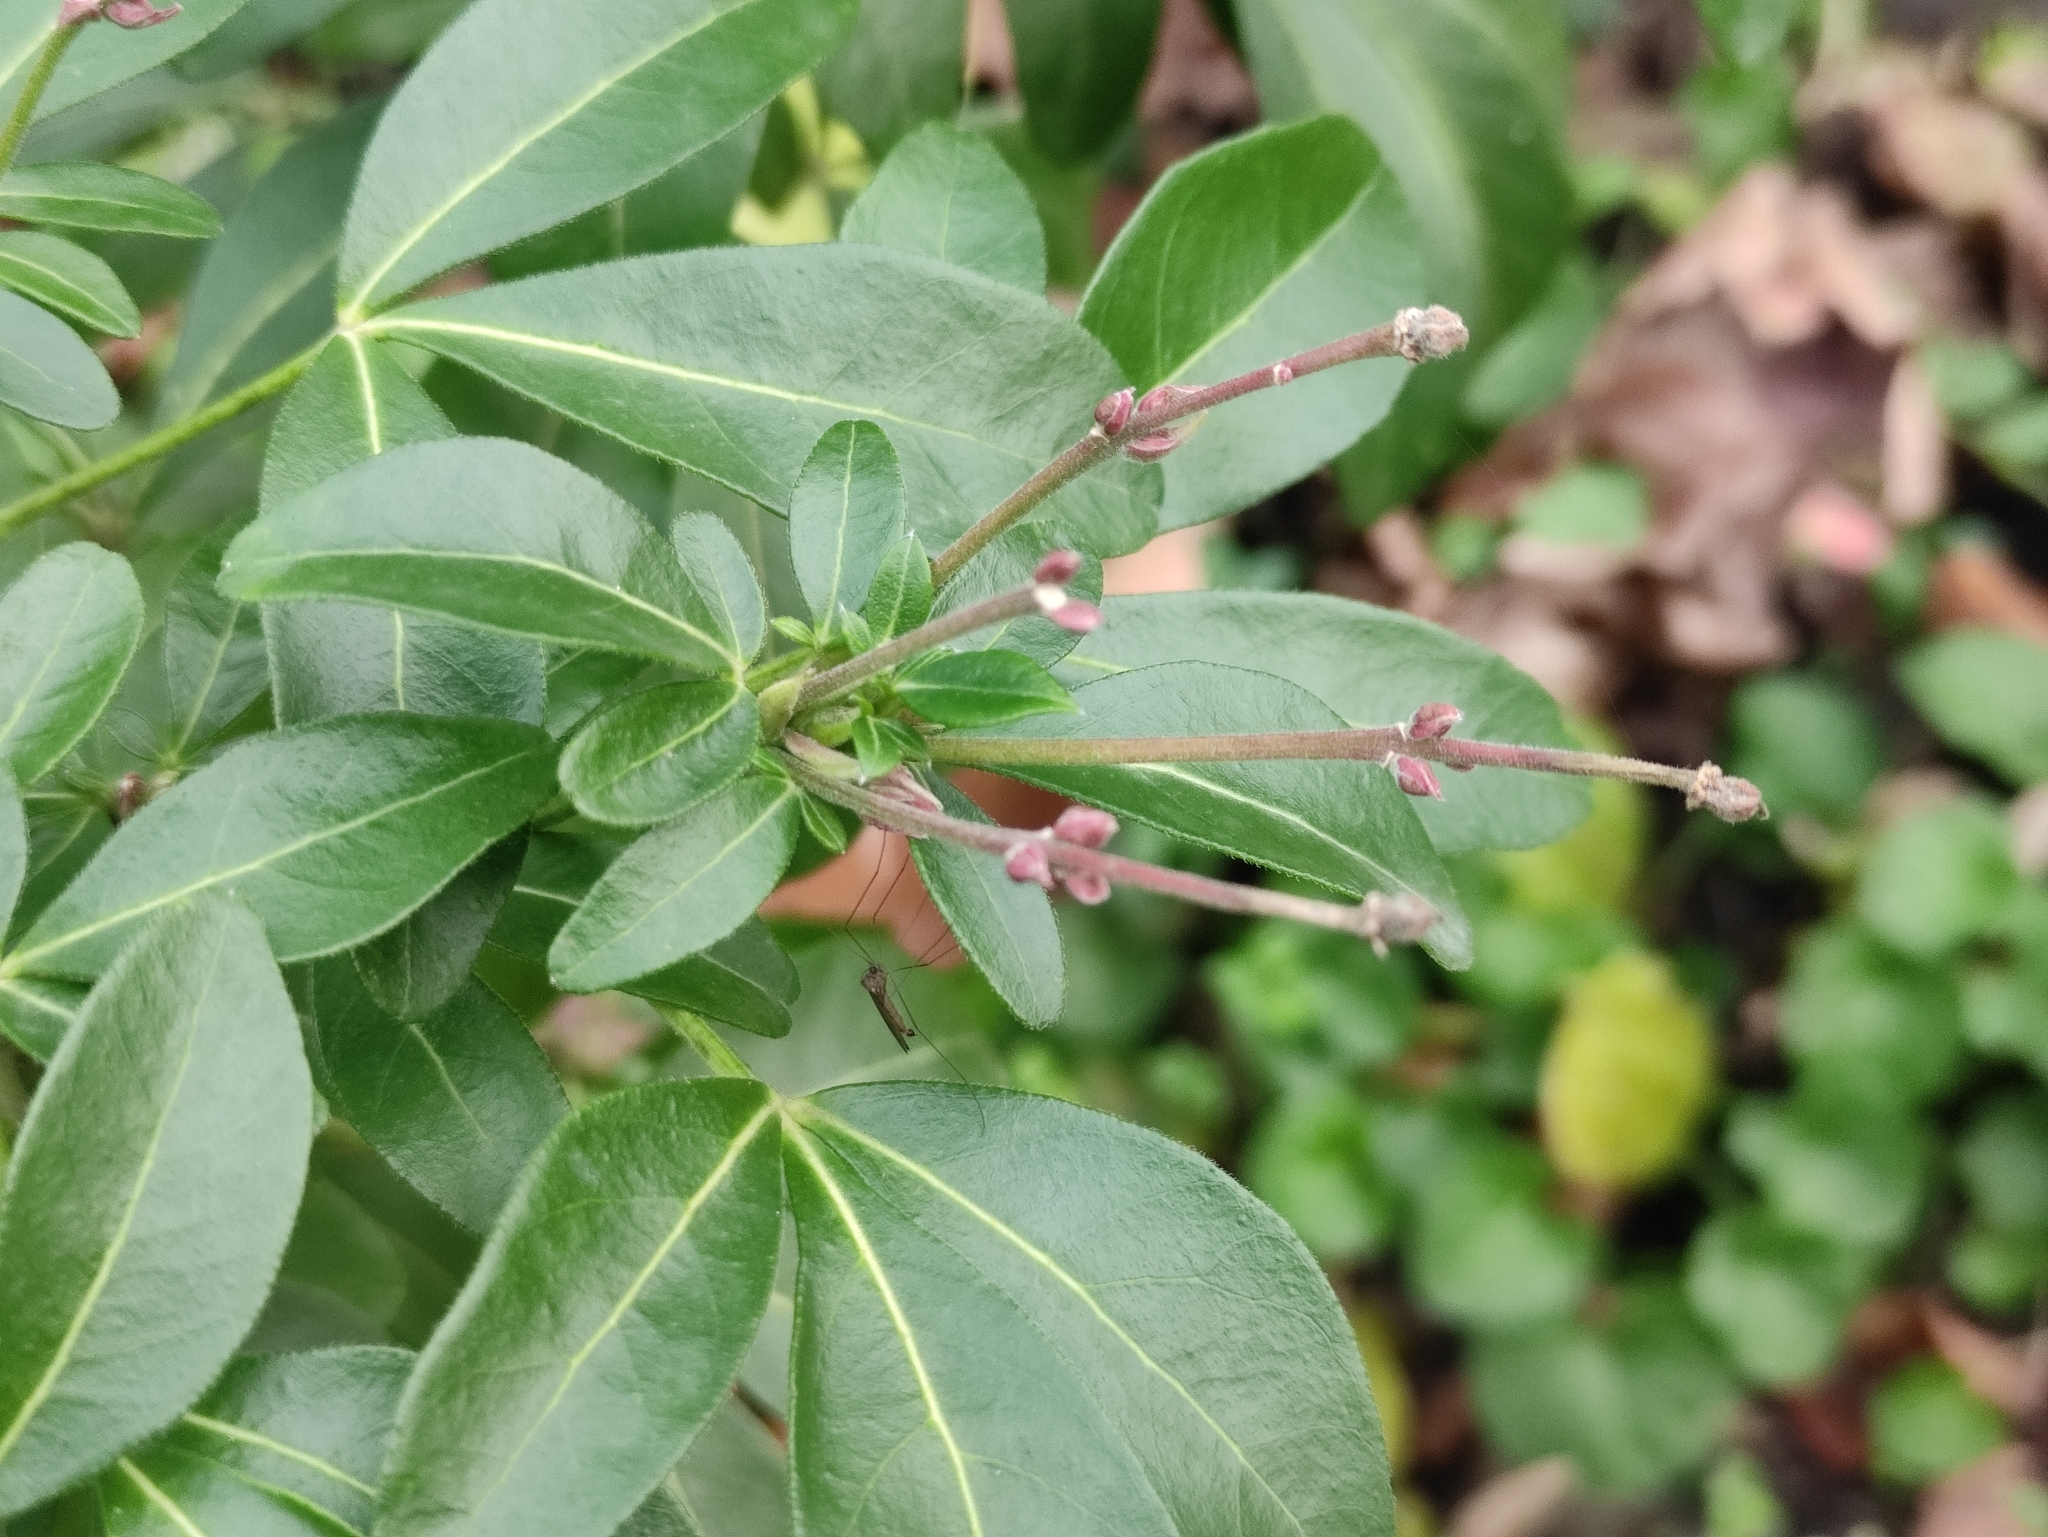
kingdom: Plantae
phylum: Tracheophyta
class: Magnoliopsida
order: Sapindales
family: Rutaceae
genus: Choisya
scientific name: Choisya ternata
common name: Mexican orange
